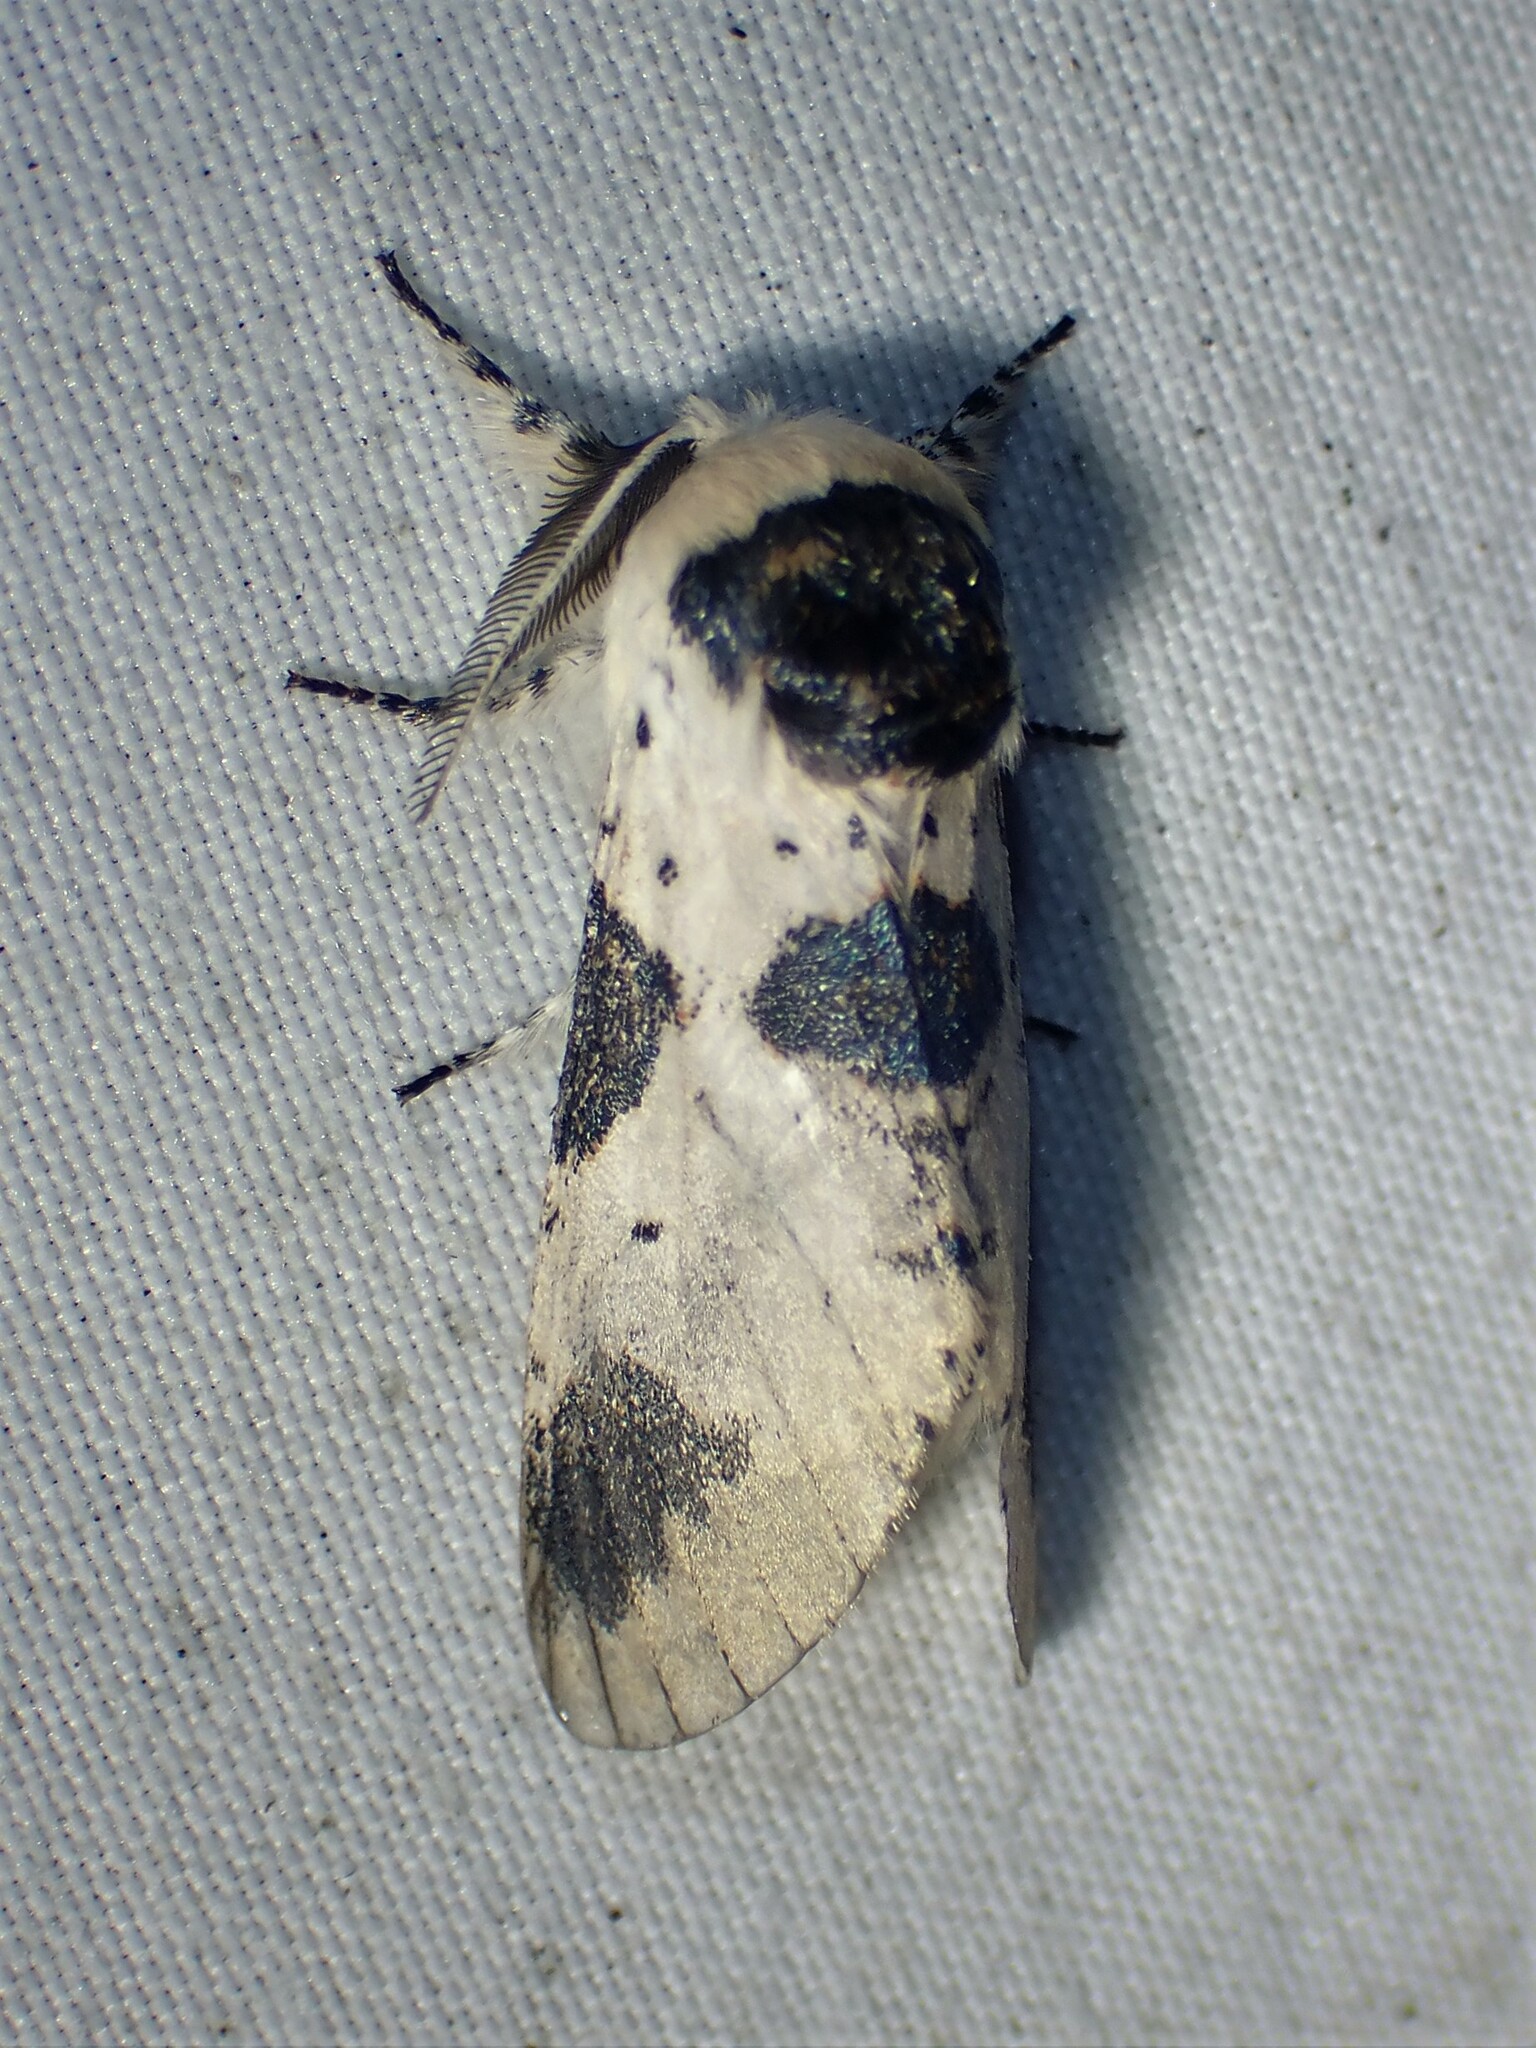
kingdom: Animalia
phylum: Arthropoda
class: Insecta
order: Lepidoptera
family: Notodontidae
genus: Furcula
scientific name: Furcula modesta
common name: Modest furcula moth
